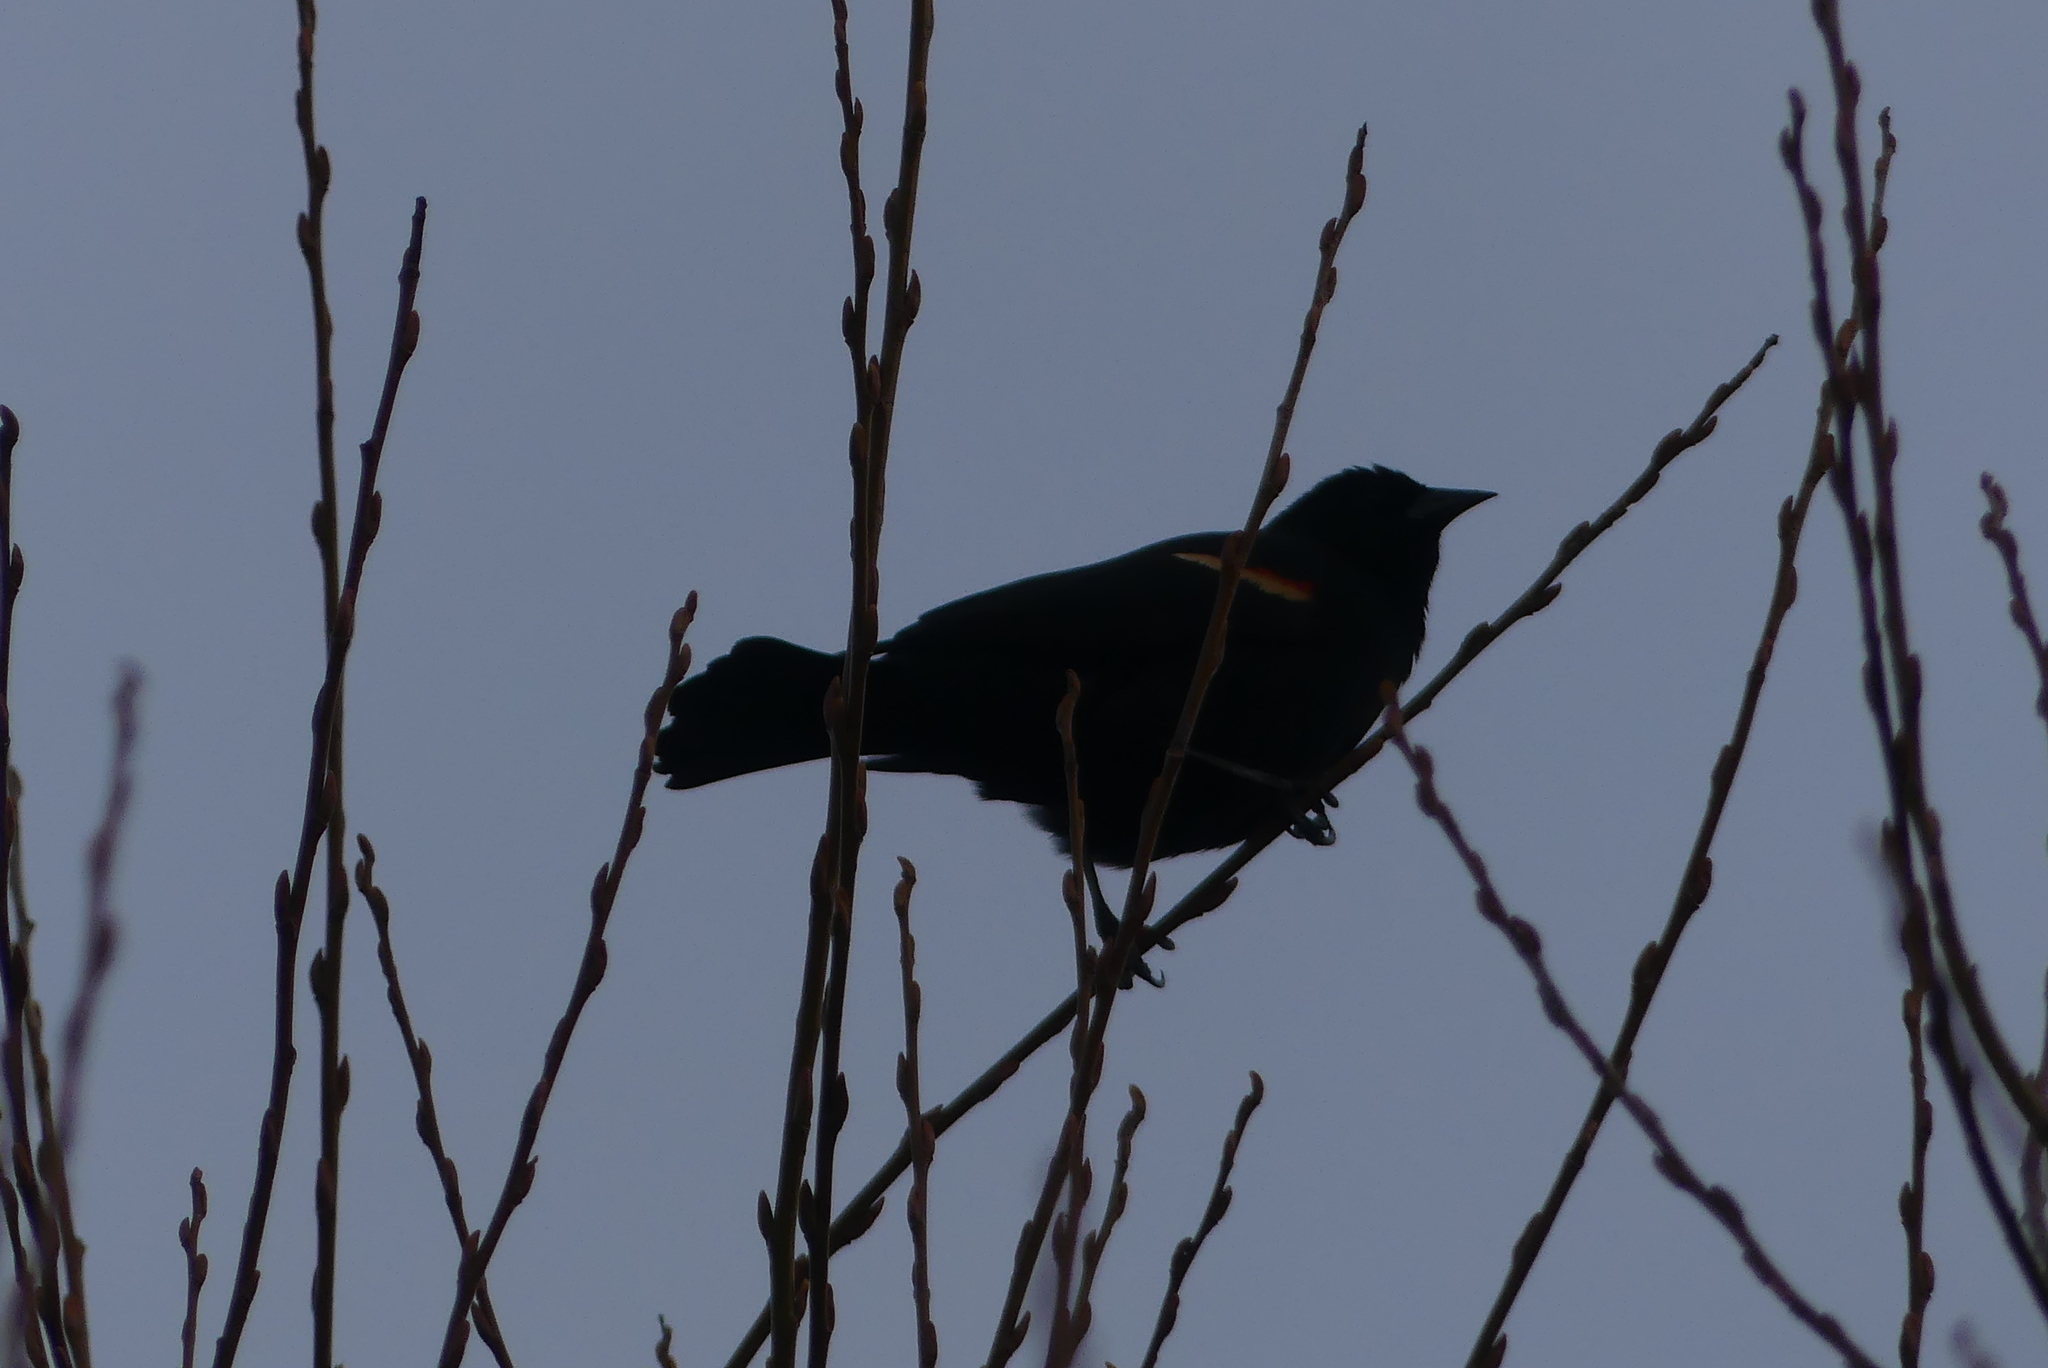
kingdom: Animalia
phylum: Chordata
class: Aves
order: Passeriformes
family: Icteridae
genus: Agelaius
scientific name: Agelaius phoeniceus
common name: Red-winged blackbird
